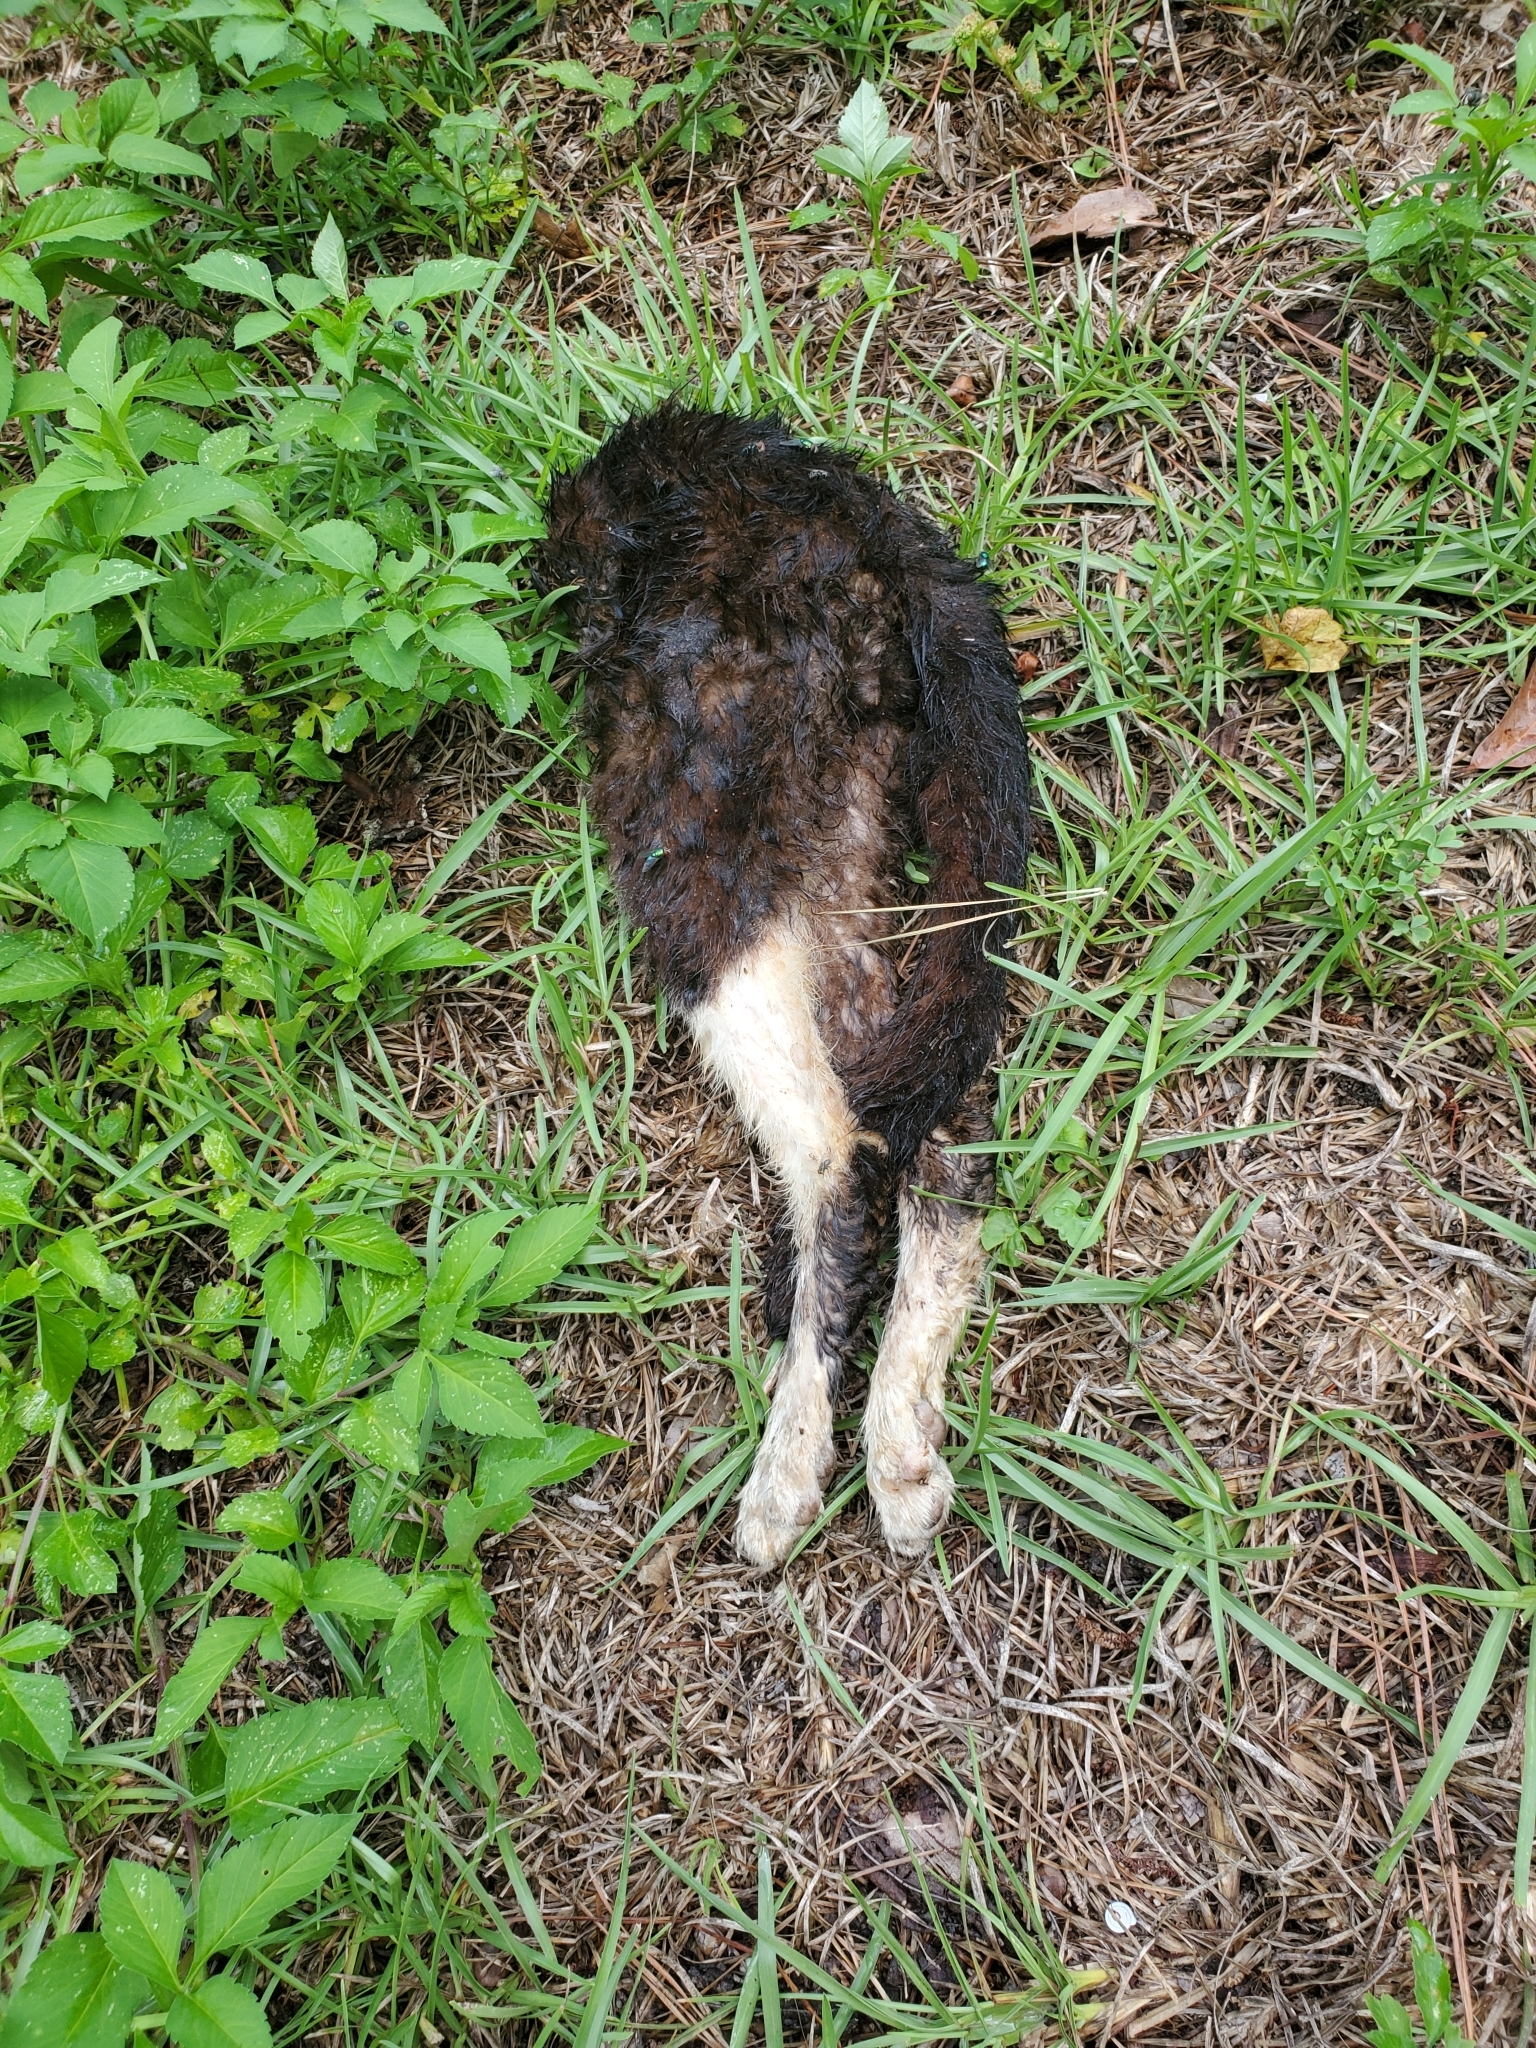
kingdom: Animalia
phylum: Chordata
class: Mammalia
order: Carnivora
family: Felidae
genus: Felis
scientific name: Felis catus
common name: Domestic cat
